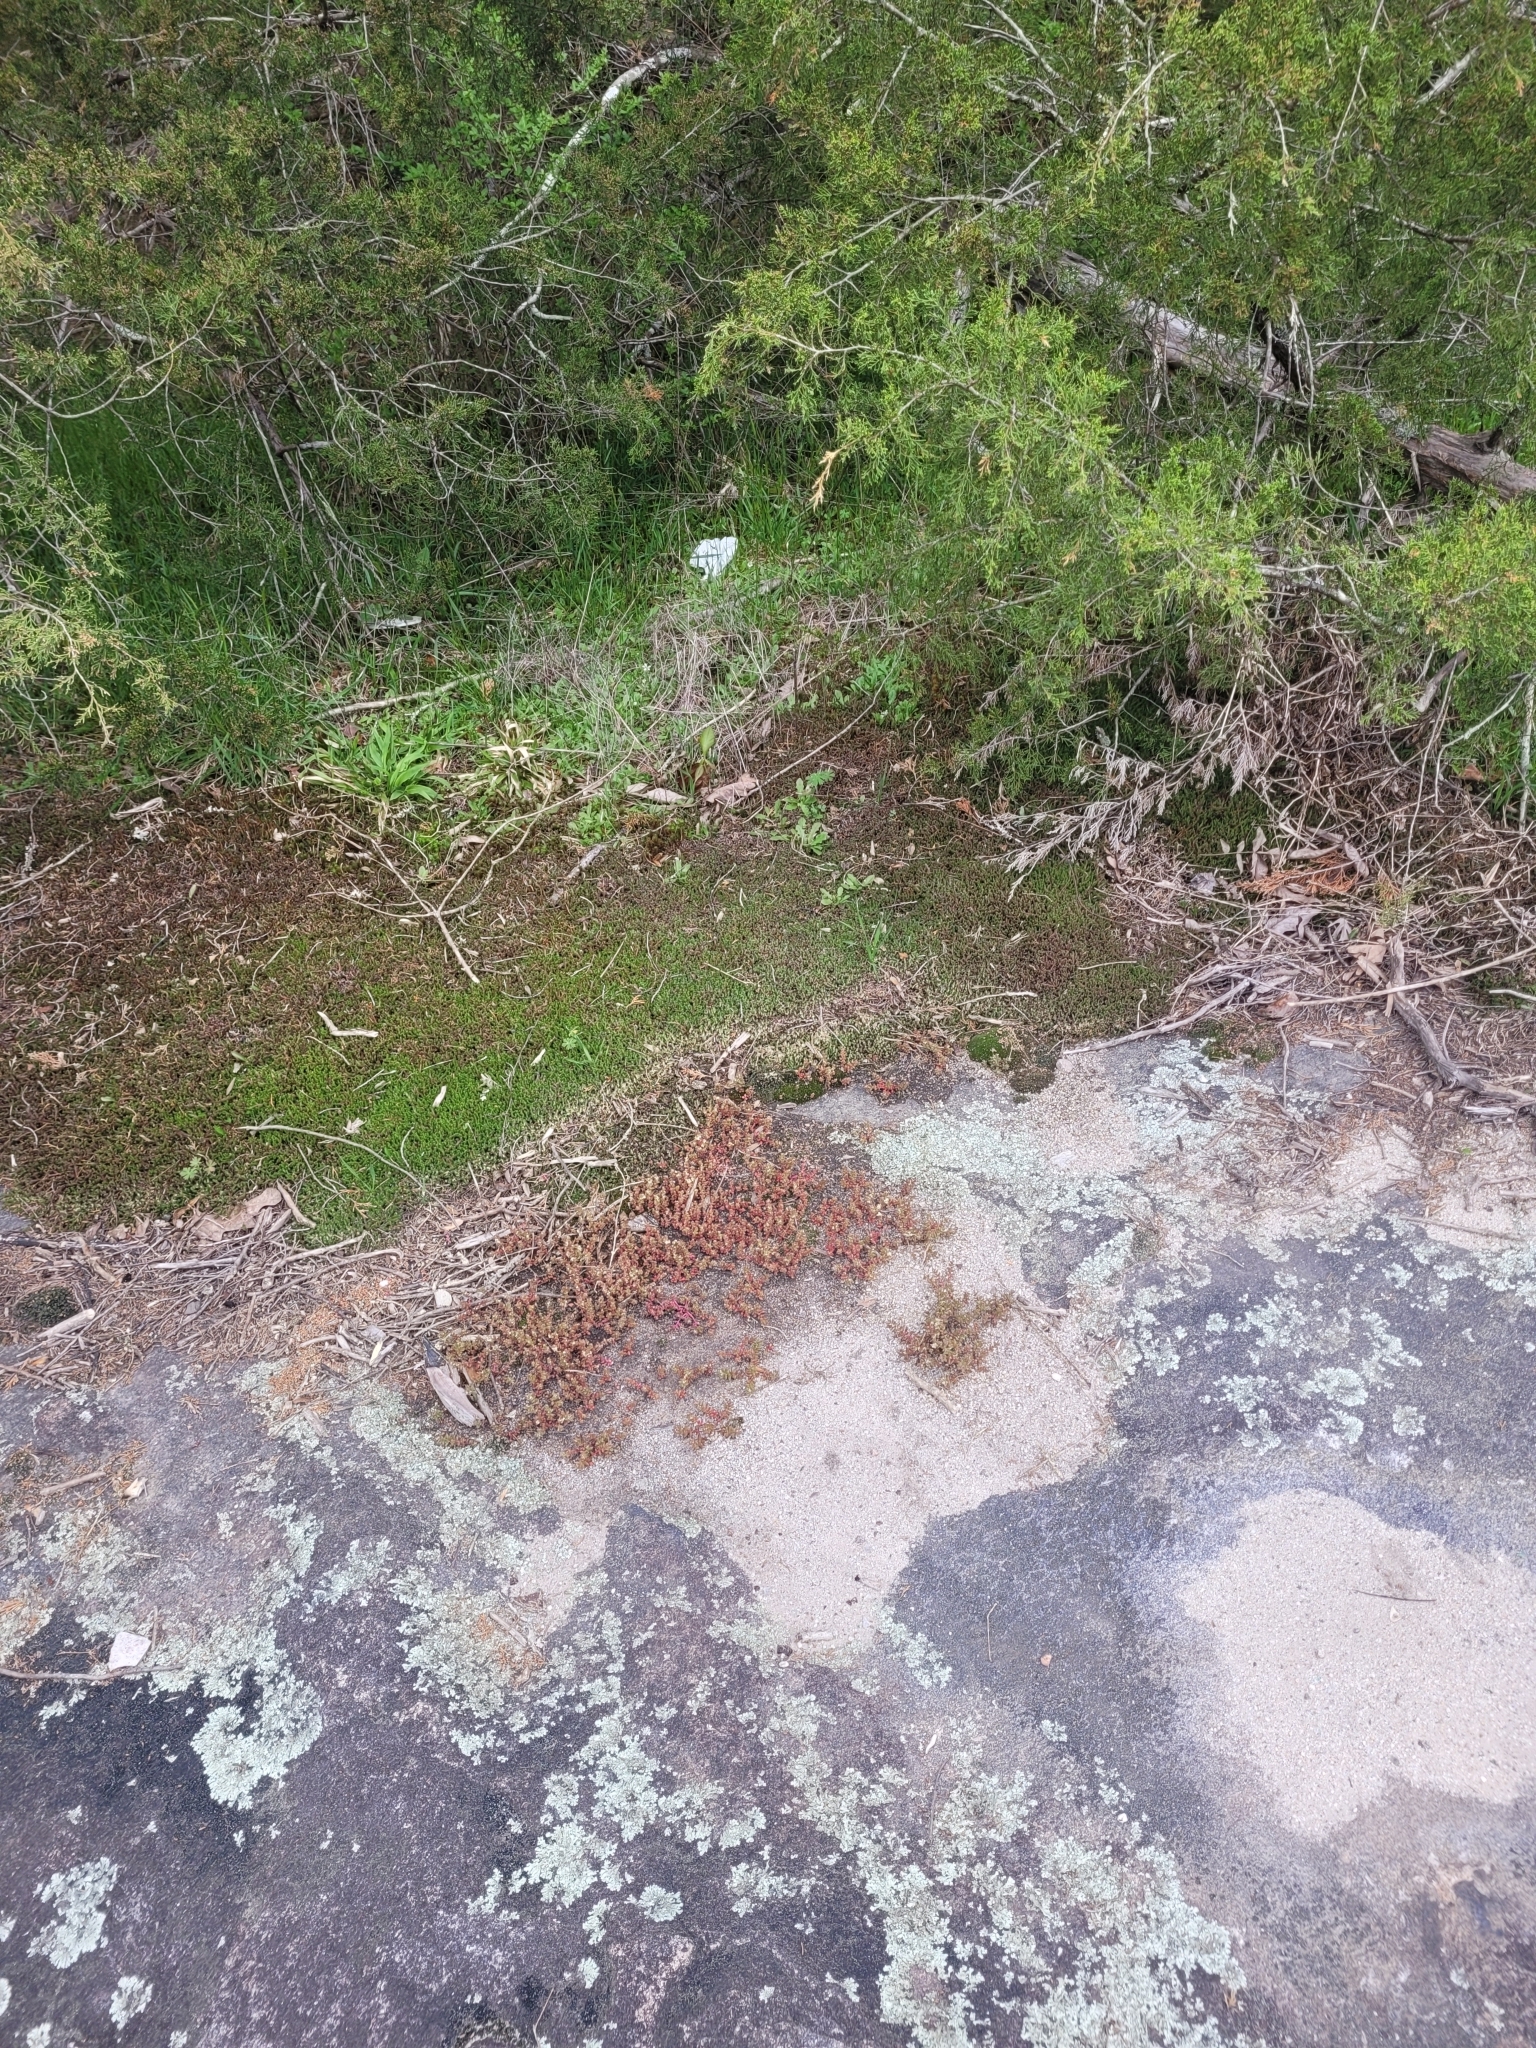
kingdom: Plantae
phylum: Tracheophyta
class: Magnoliopsida
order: Saxifragales
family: Crassulaceae
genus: Sedum
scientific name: Sedum smallii
